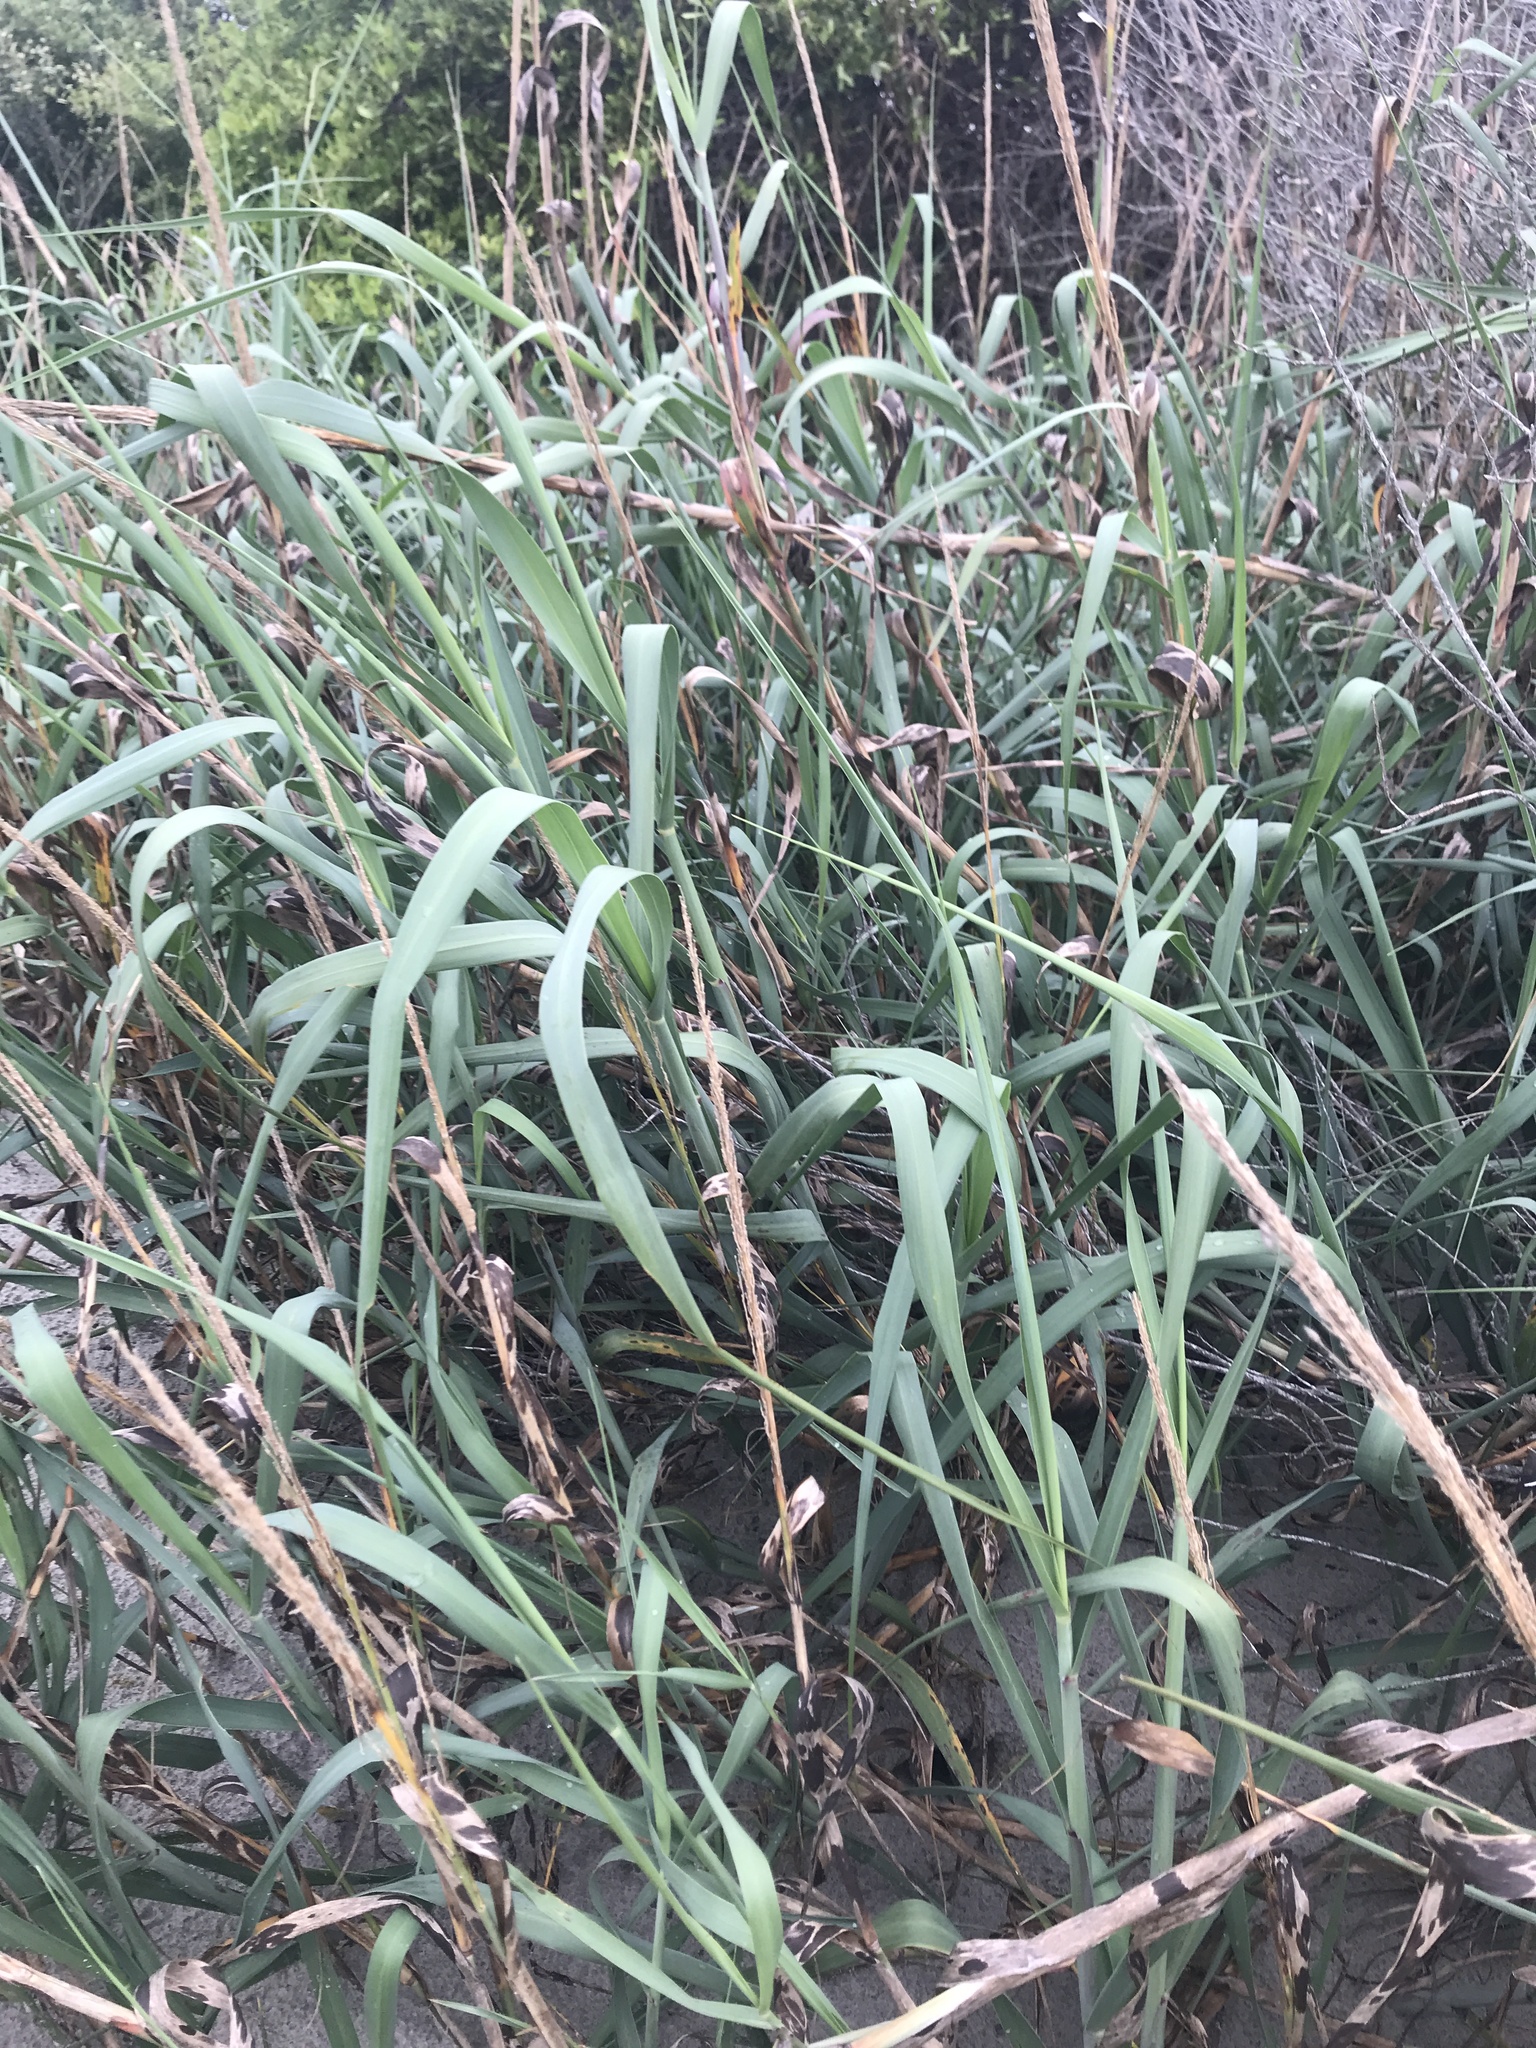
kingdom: Plantae
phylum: Tracheophyta
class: Liliopsida
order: Poales
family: Poaceae
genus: Panicum
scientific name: Panicum amarum
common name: Bitter panicum
